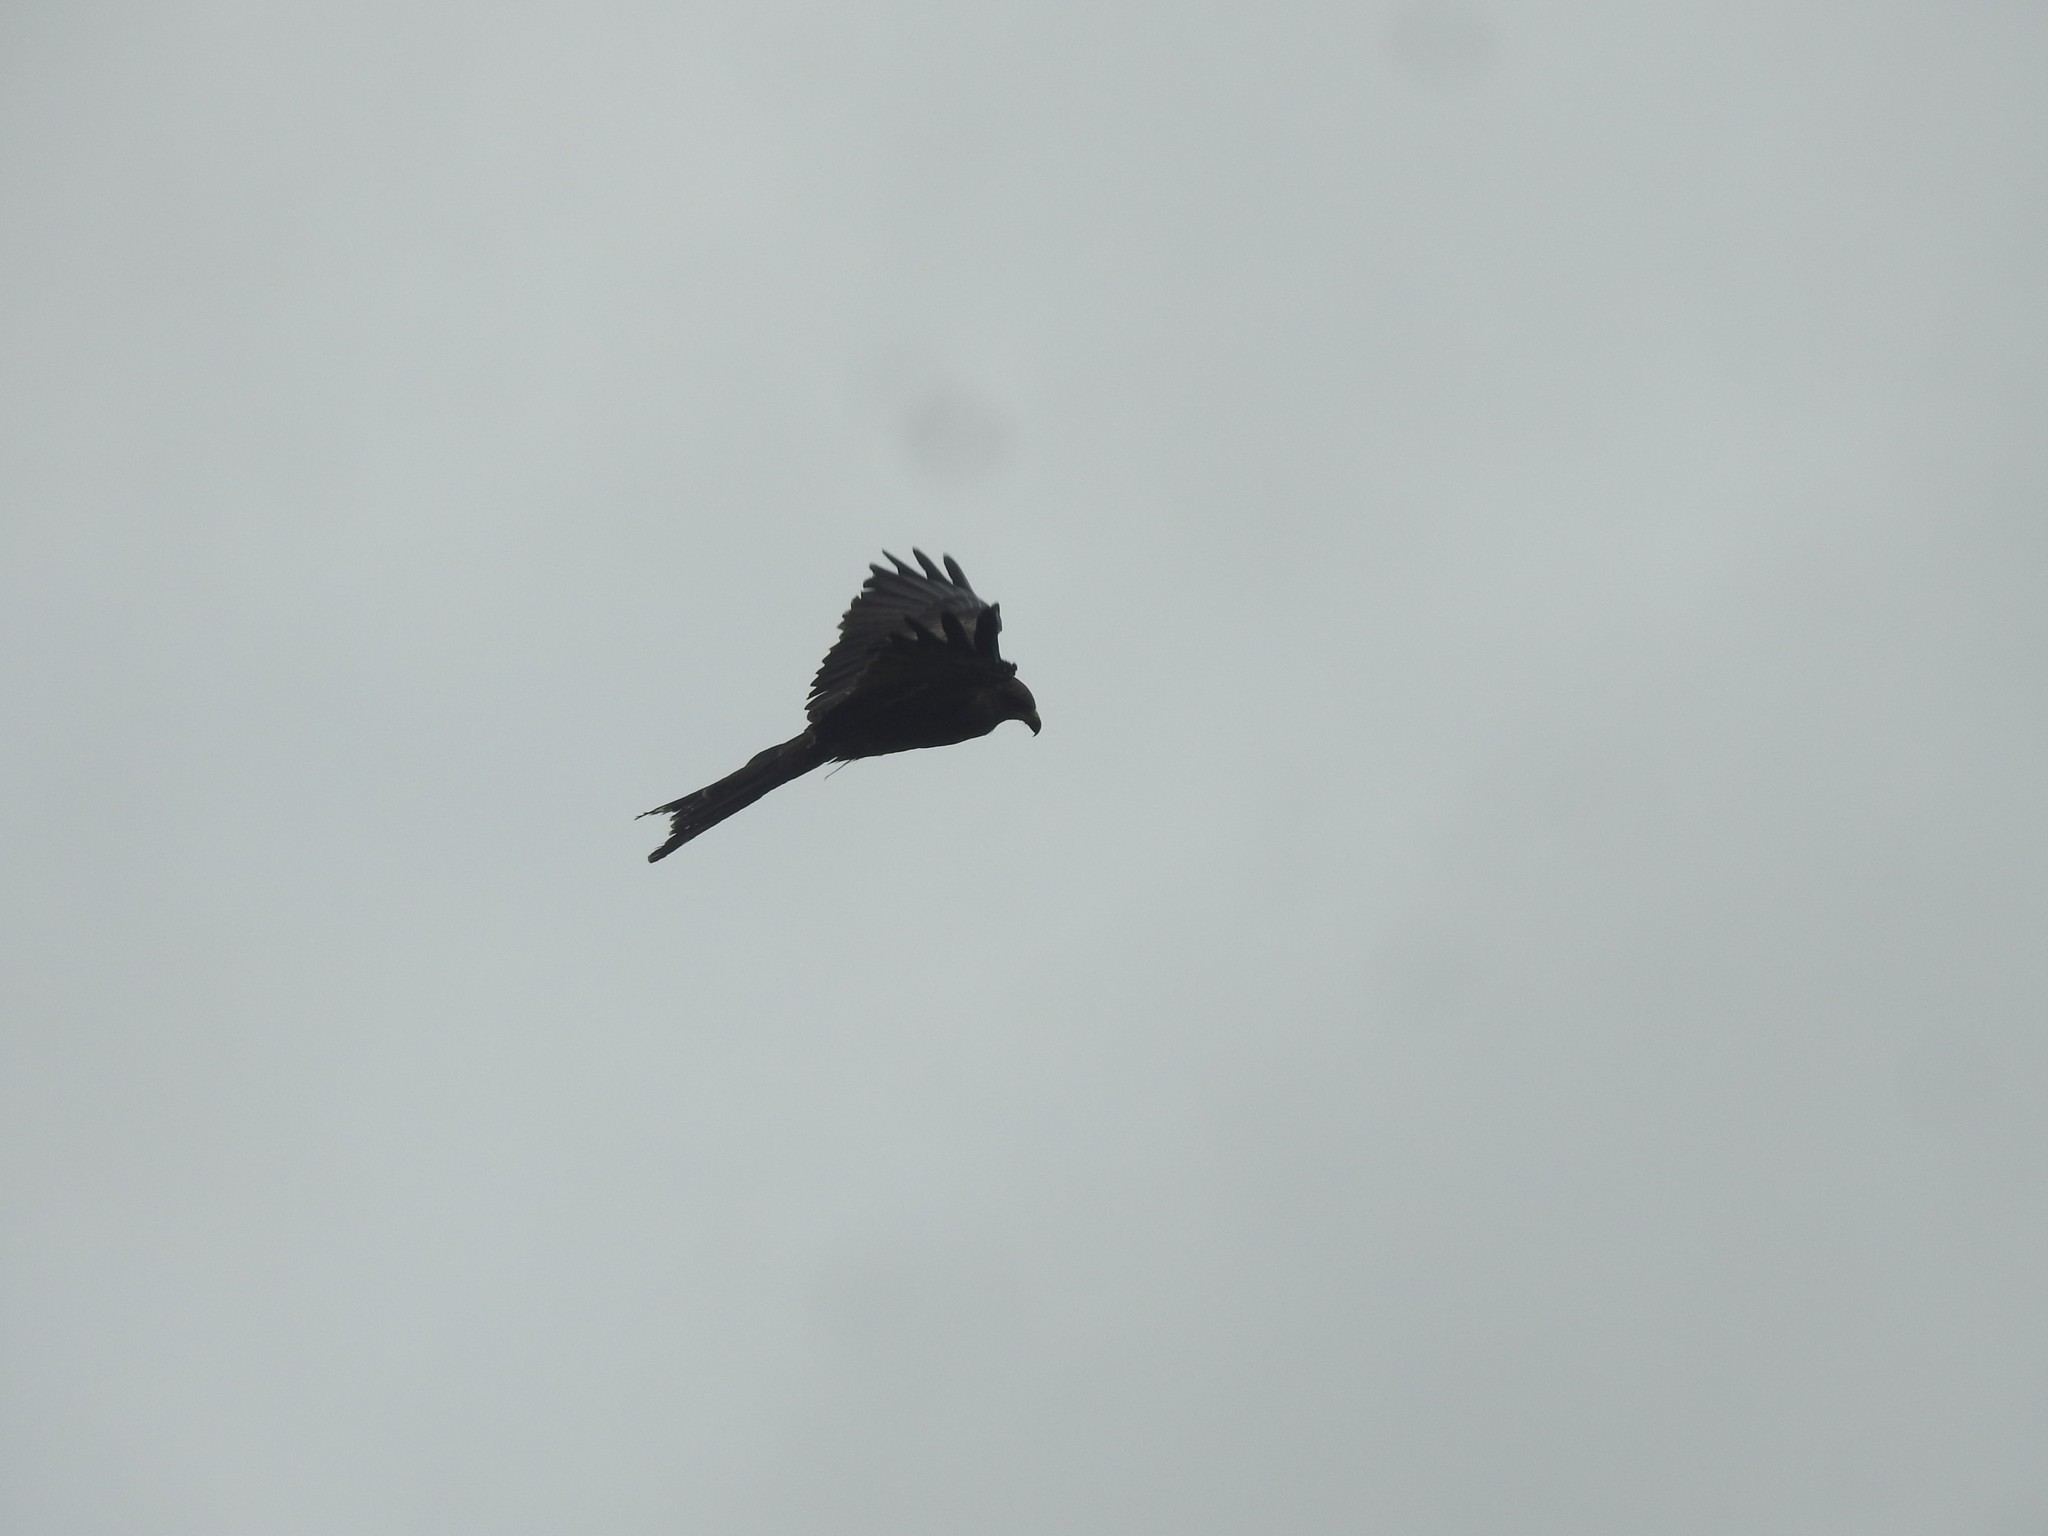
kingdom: Animalia
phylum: Chordata
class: Aves
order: Accipitriformes
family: Accipitridae
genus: Milvus
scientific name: Milvus migrans
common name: Black kite
